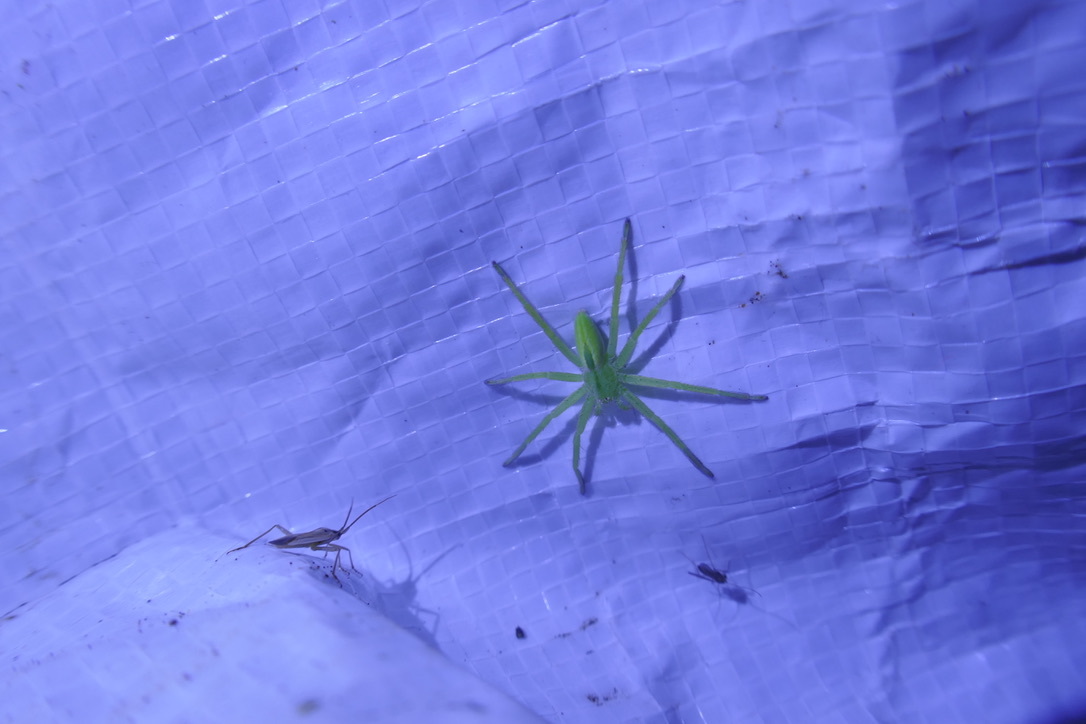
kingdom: Animalia
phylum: Arthropoda
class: Arachnida
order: Araneae
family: Sparassidae
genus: Micrommata
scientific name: Micrommata virescens
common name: Green spider
